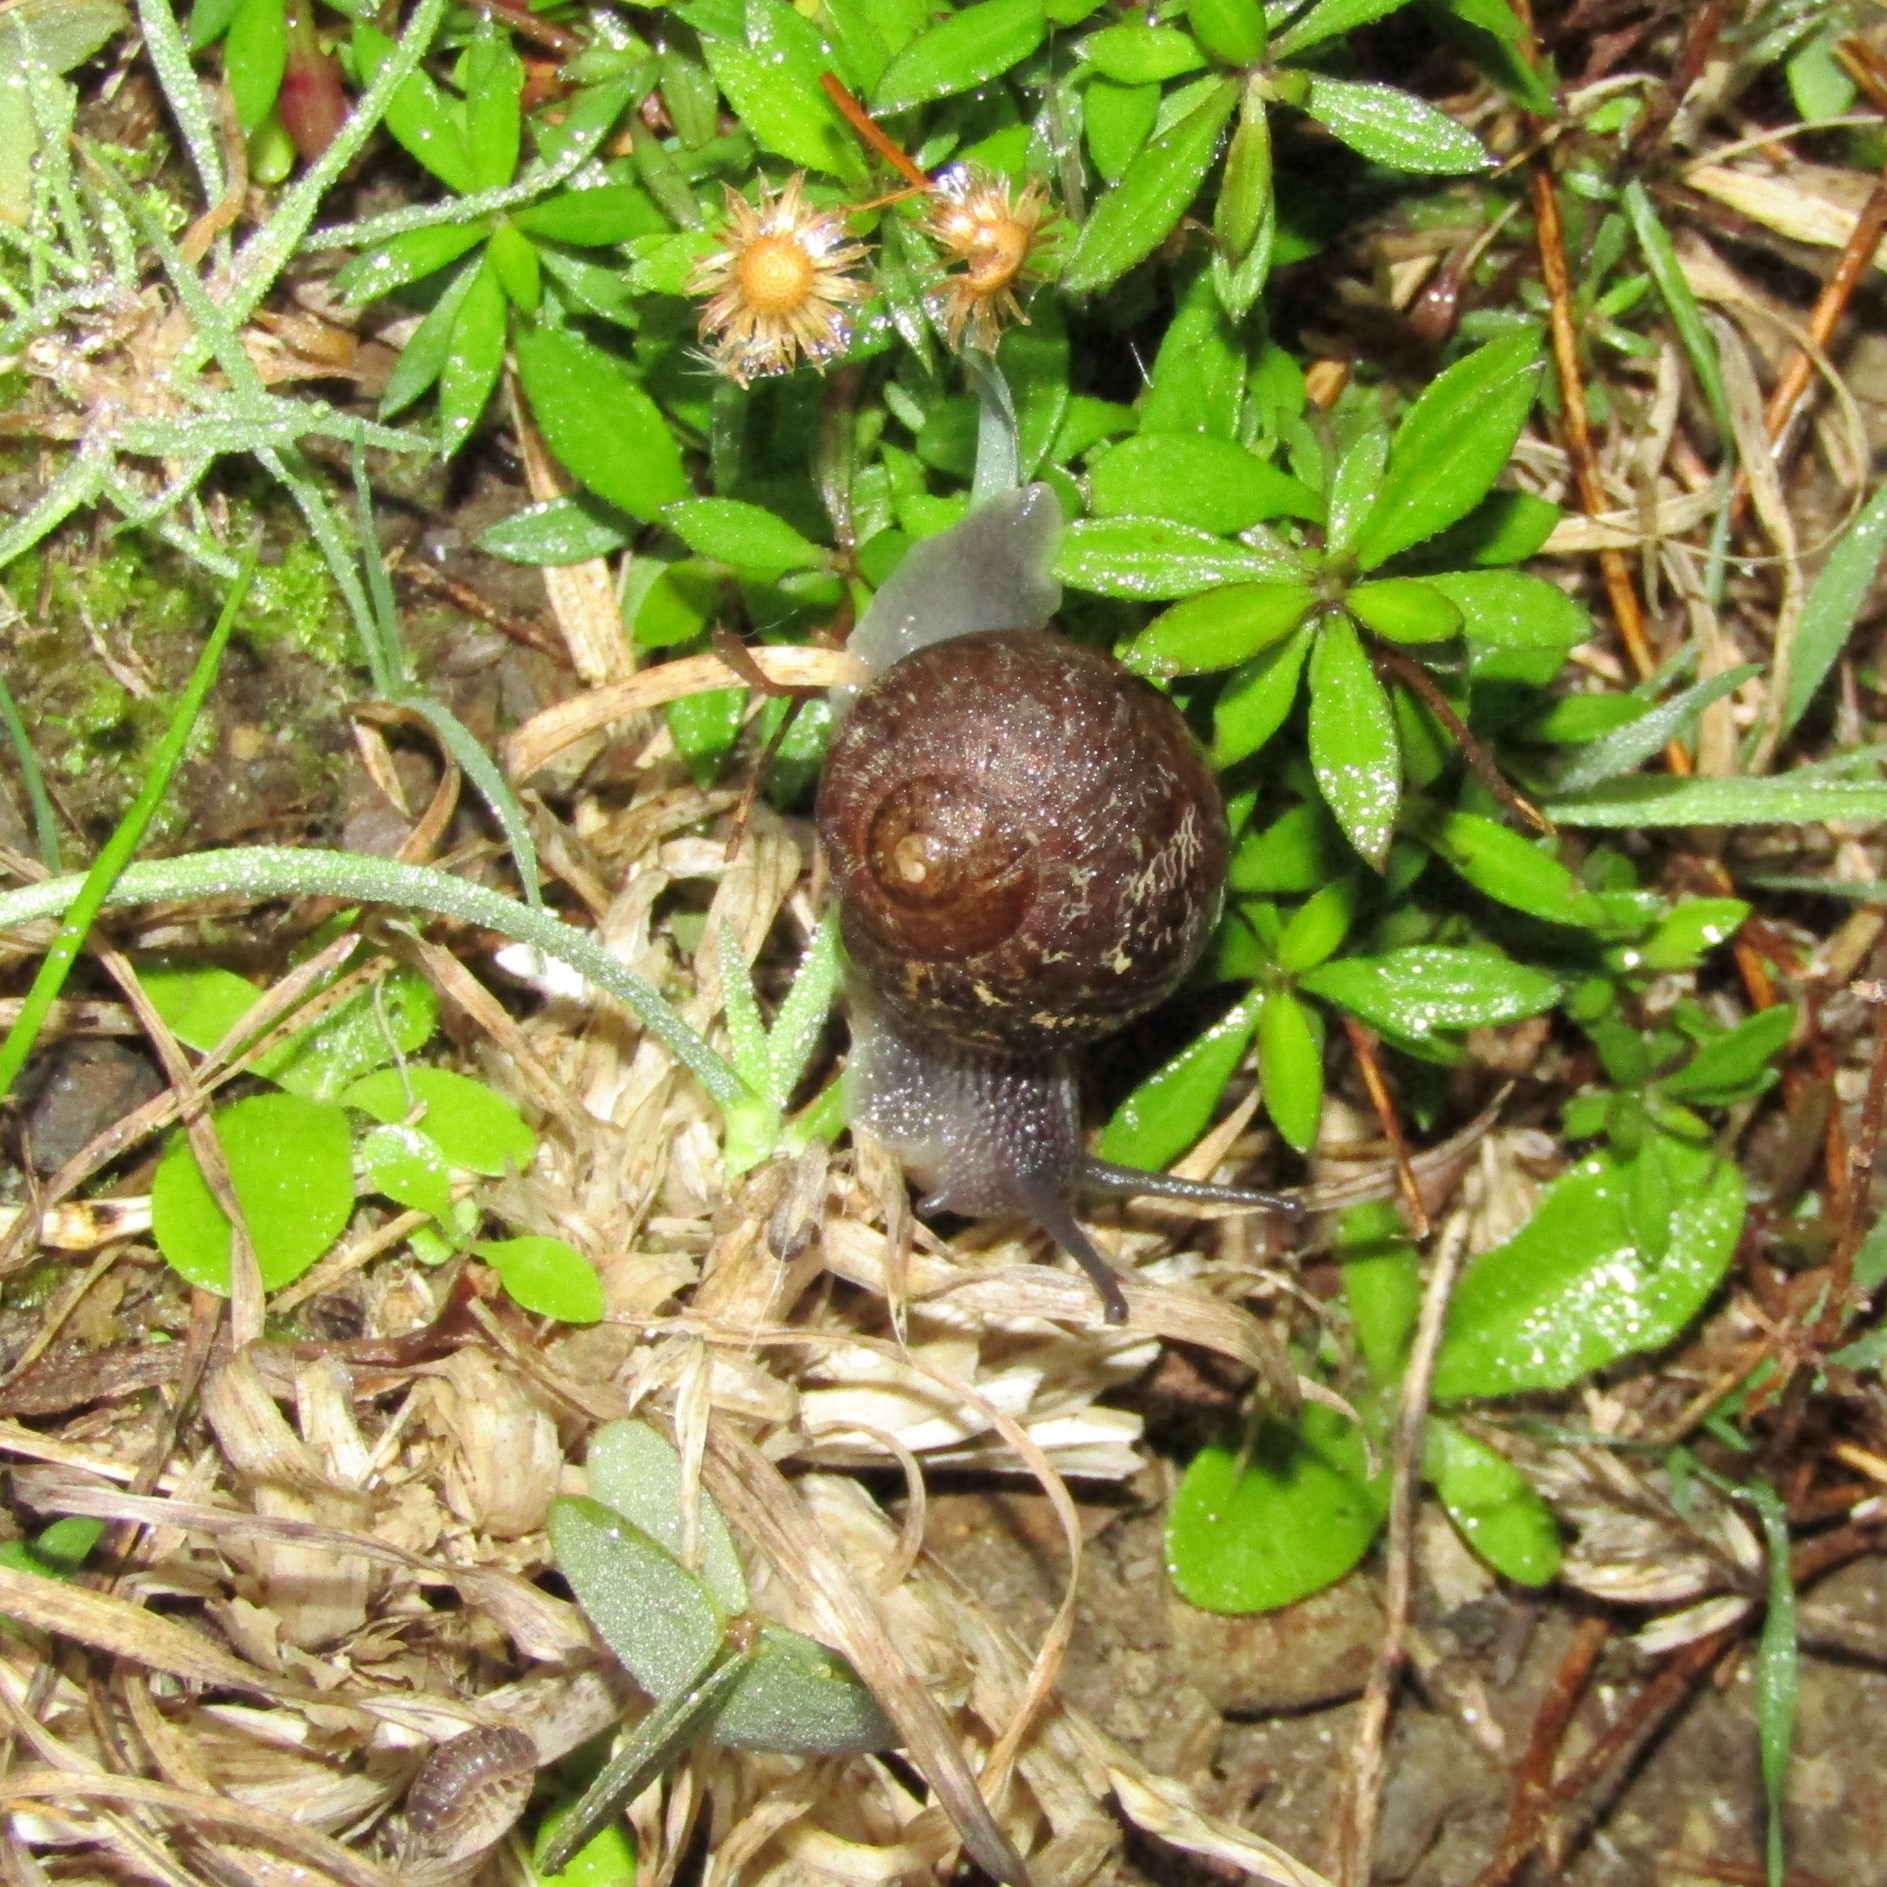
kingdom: Animalia
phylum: Mollusca
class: Gastropoda
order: Stylommatophora
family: Helicidae
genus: Cornu
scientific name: Cornu aspersum
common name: Brown garden snail
